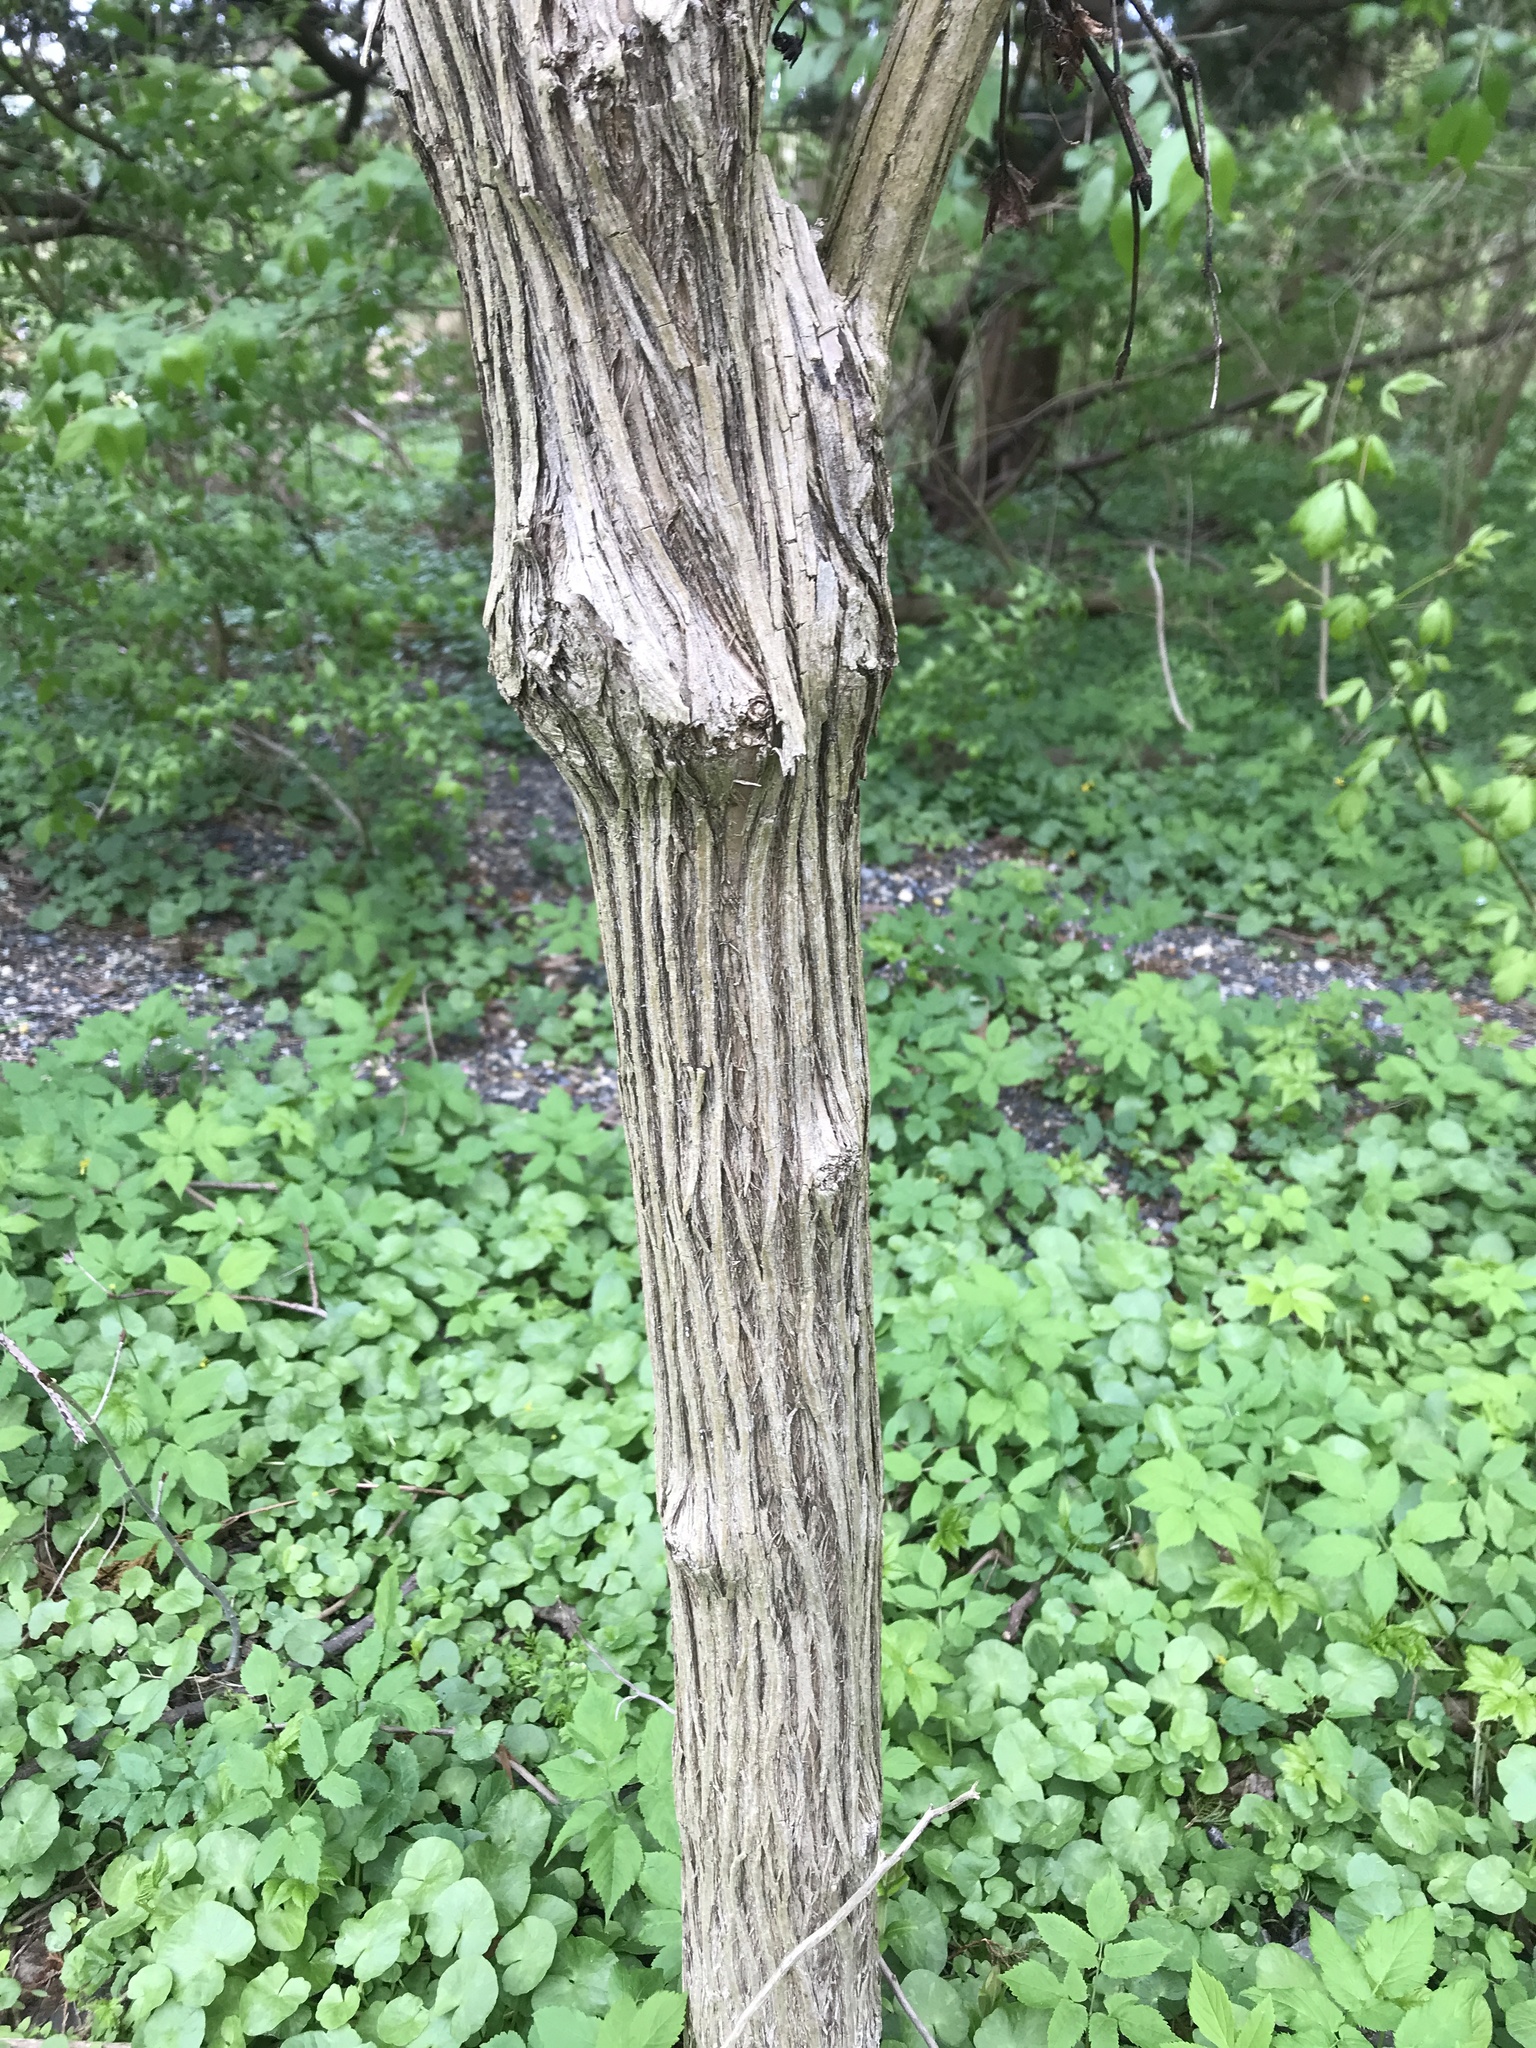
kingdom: Plantae
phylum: Tracheophyta
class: Magnoliopsida
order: Dipsacales
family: Caprifoliaceae
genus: Lonicera
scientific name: Lonicera maackii
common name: Amur honeysuckle
